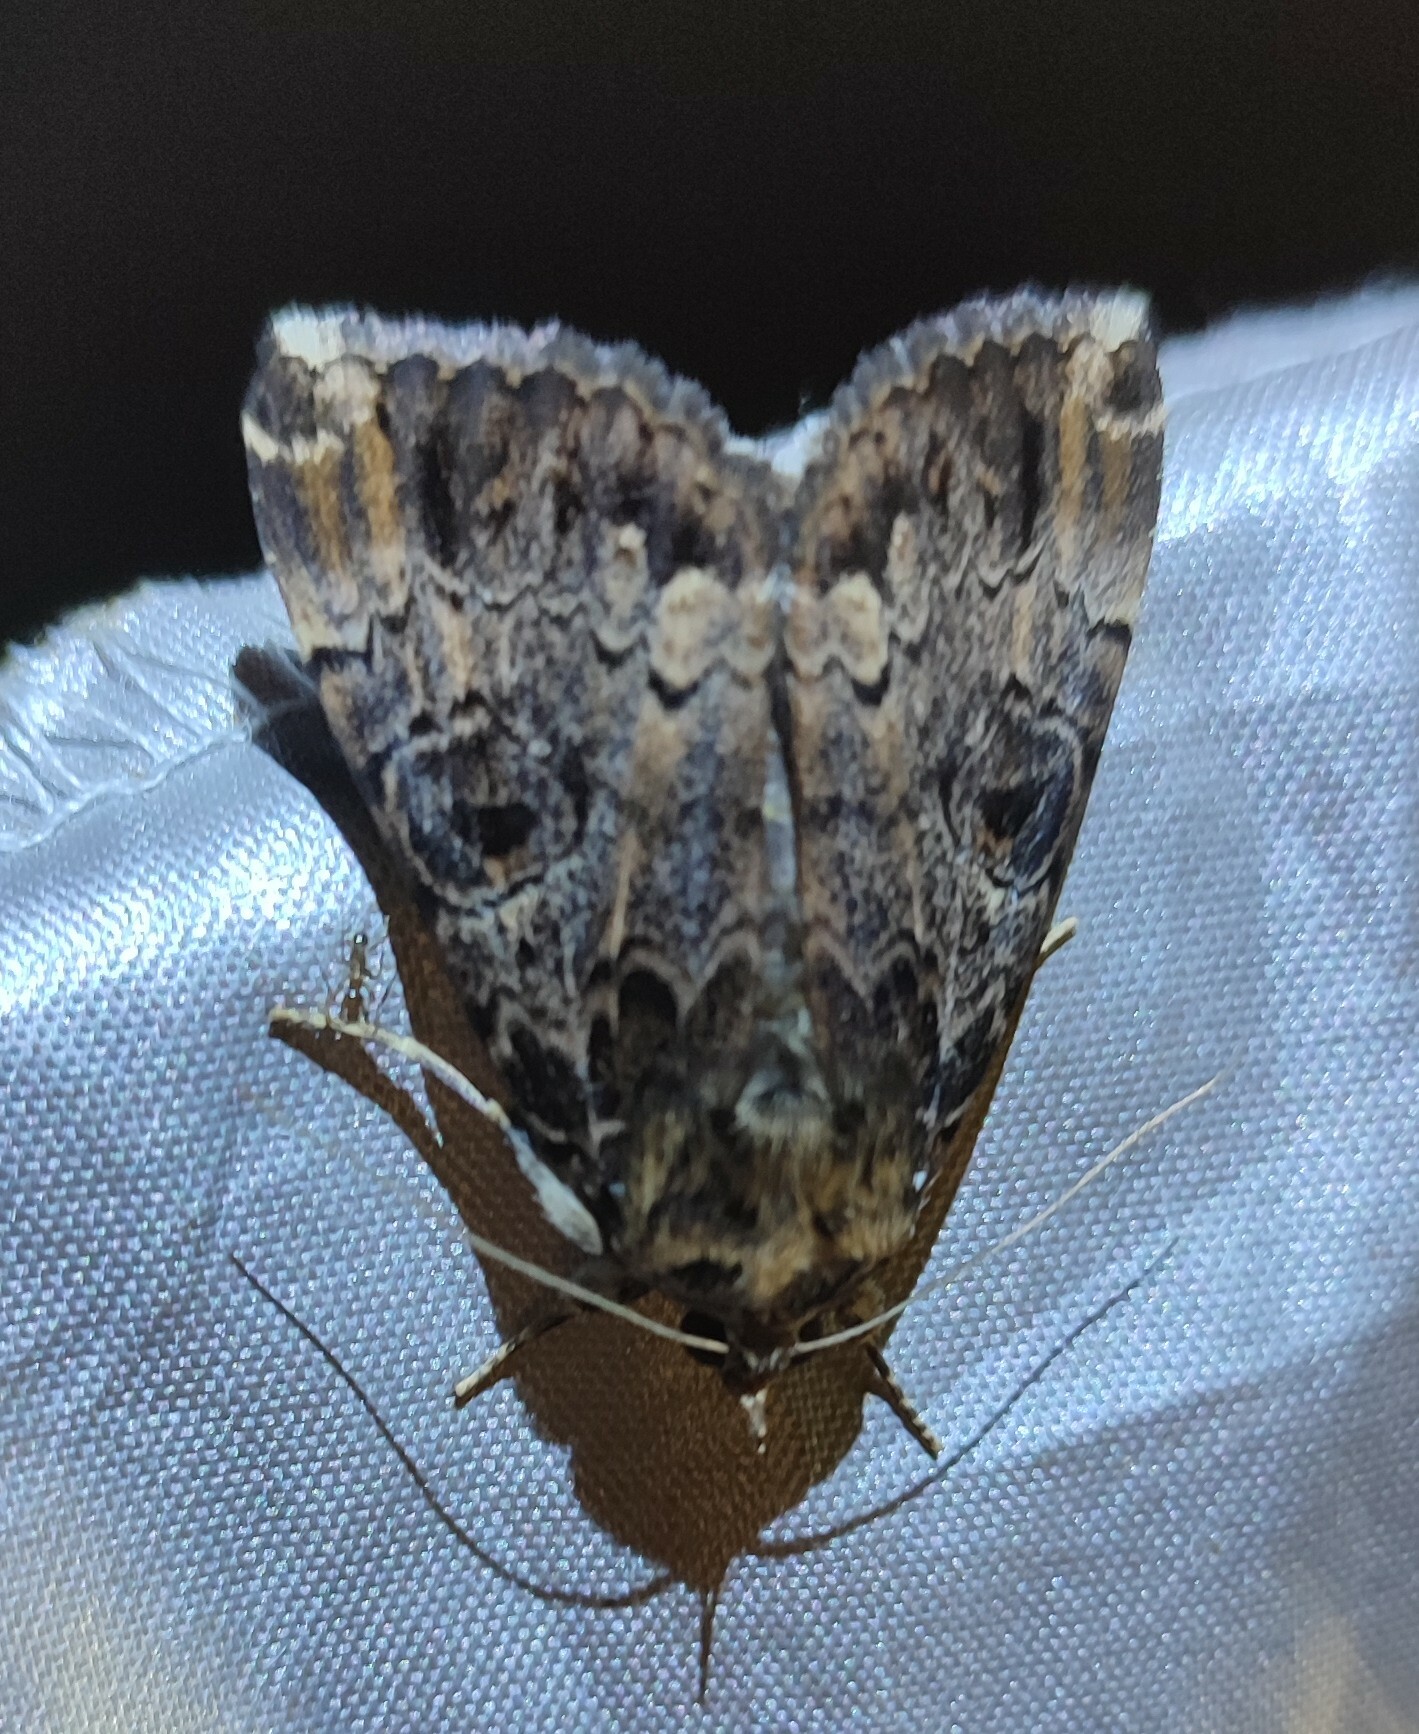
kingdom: Animalia
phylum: Arthropoda
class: Insecta
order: Lepidoptera
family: Erebidae
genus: Tolna
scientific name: Tolna variegata
